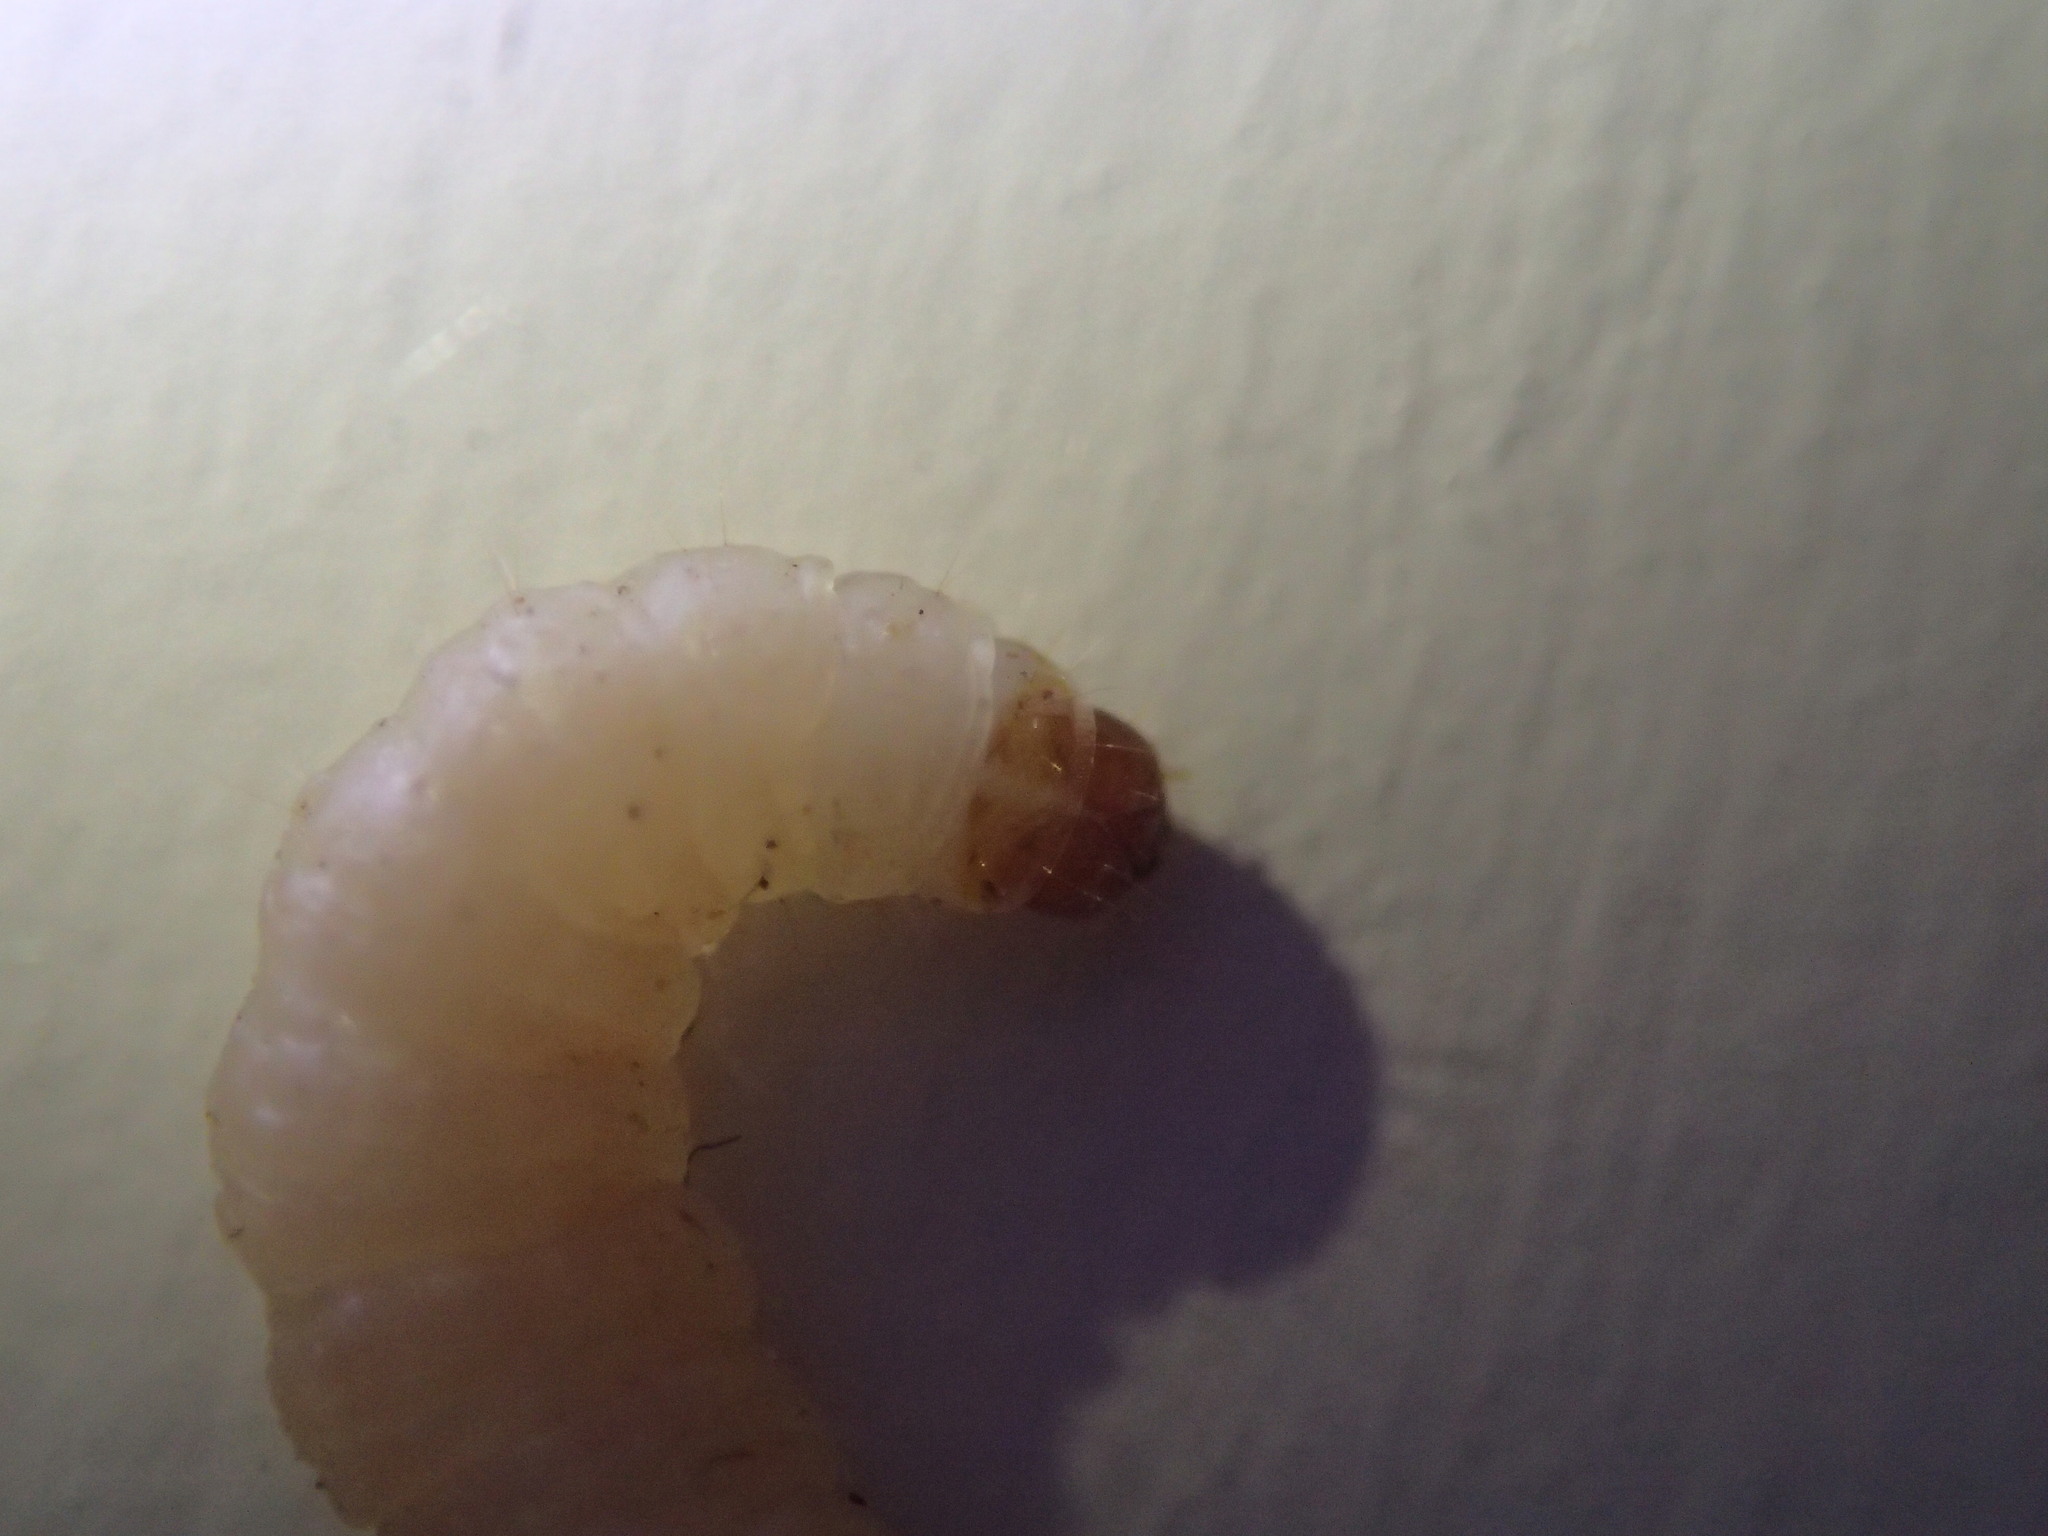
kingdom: Animalia
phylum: Arthropoda
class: Insecta
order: Lepidoptera
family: Pyralidae
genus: Plodia
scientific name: Plodia interpunctella
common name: Indian meal moth
